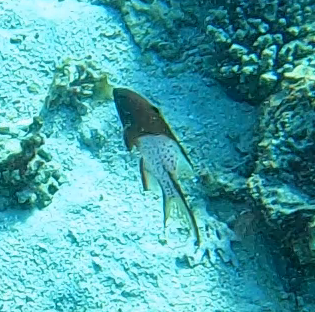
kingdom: Animalia
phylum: Chordata
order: Perciformes
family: Labridae
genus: Bodianus
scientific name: Bodianus anthioides
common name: Lyretail hogfish
